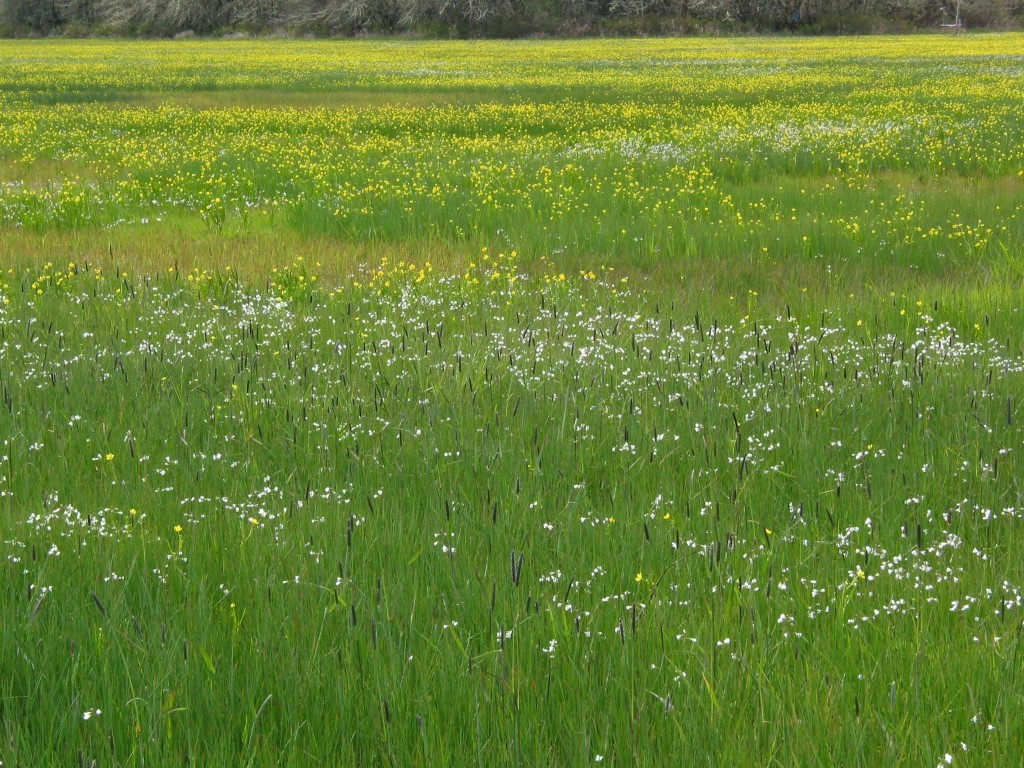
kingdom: Plantae
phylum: Tracheophyta
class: Magnoliopsida
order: Brassicales
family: Brassicaceae
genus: Cardamine
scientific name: Cardamine penduliflora
